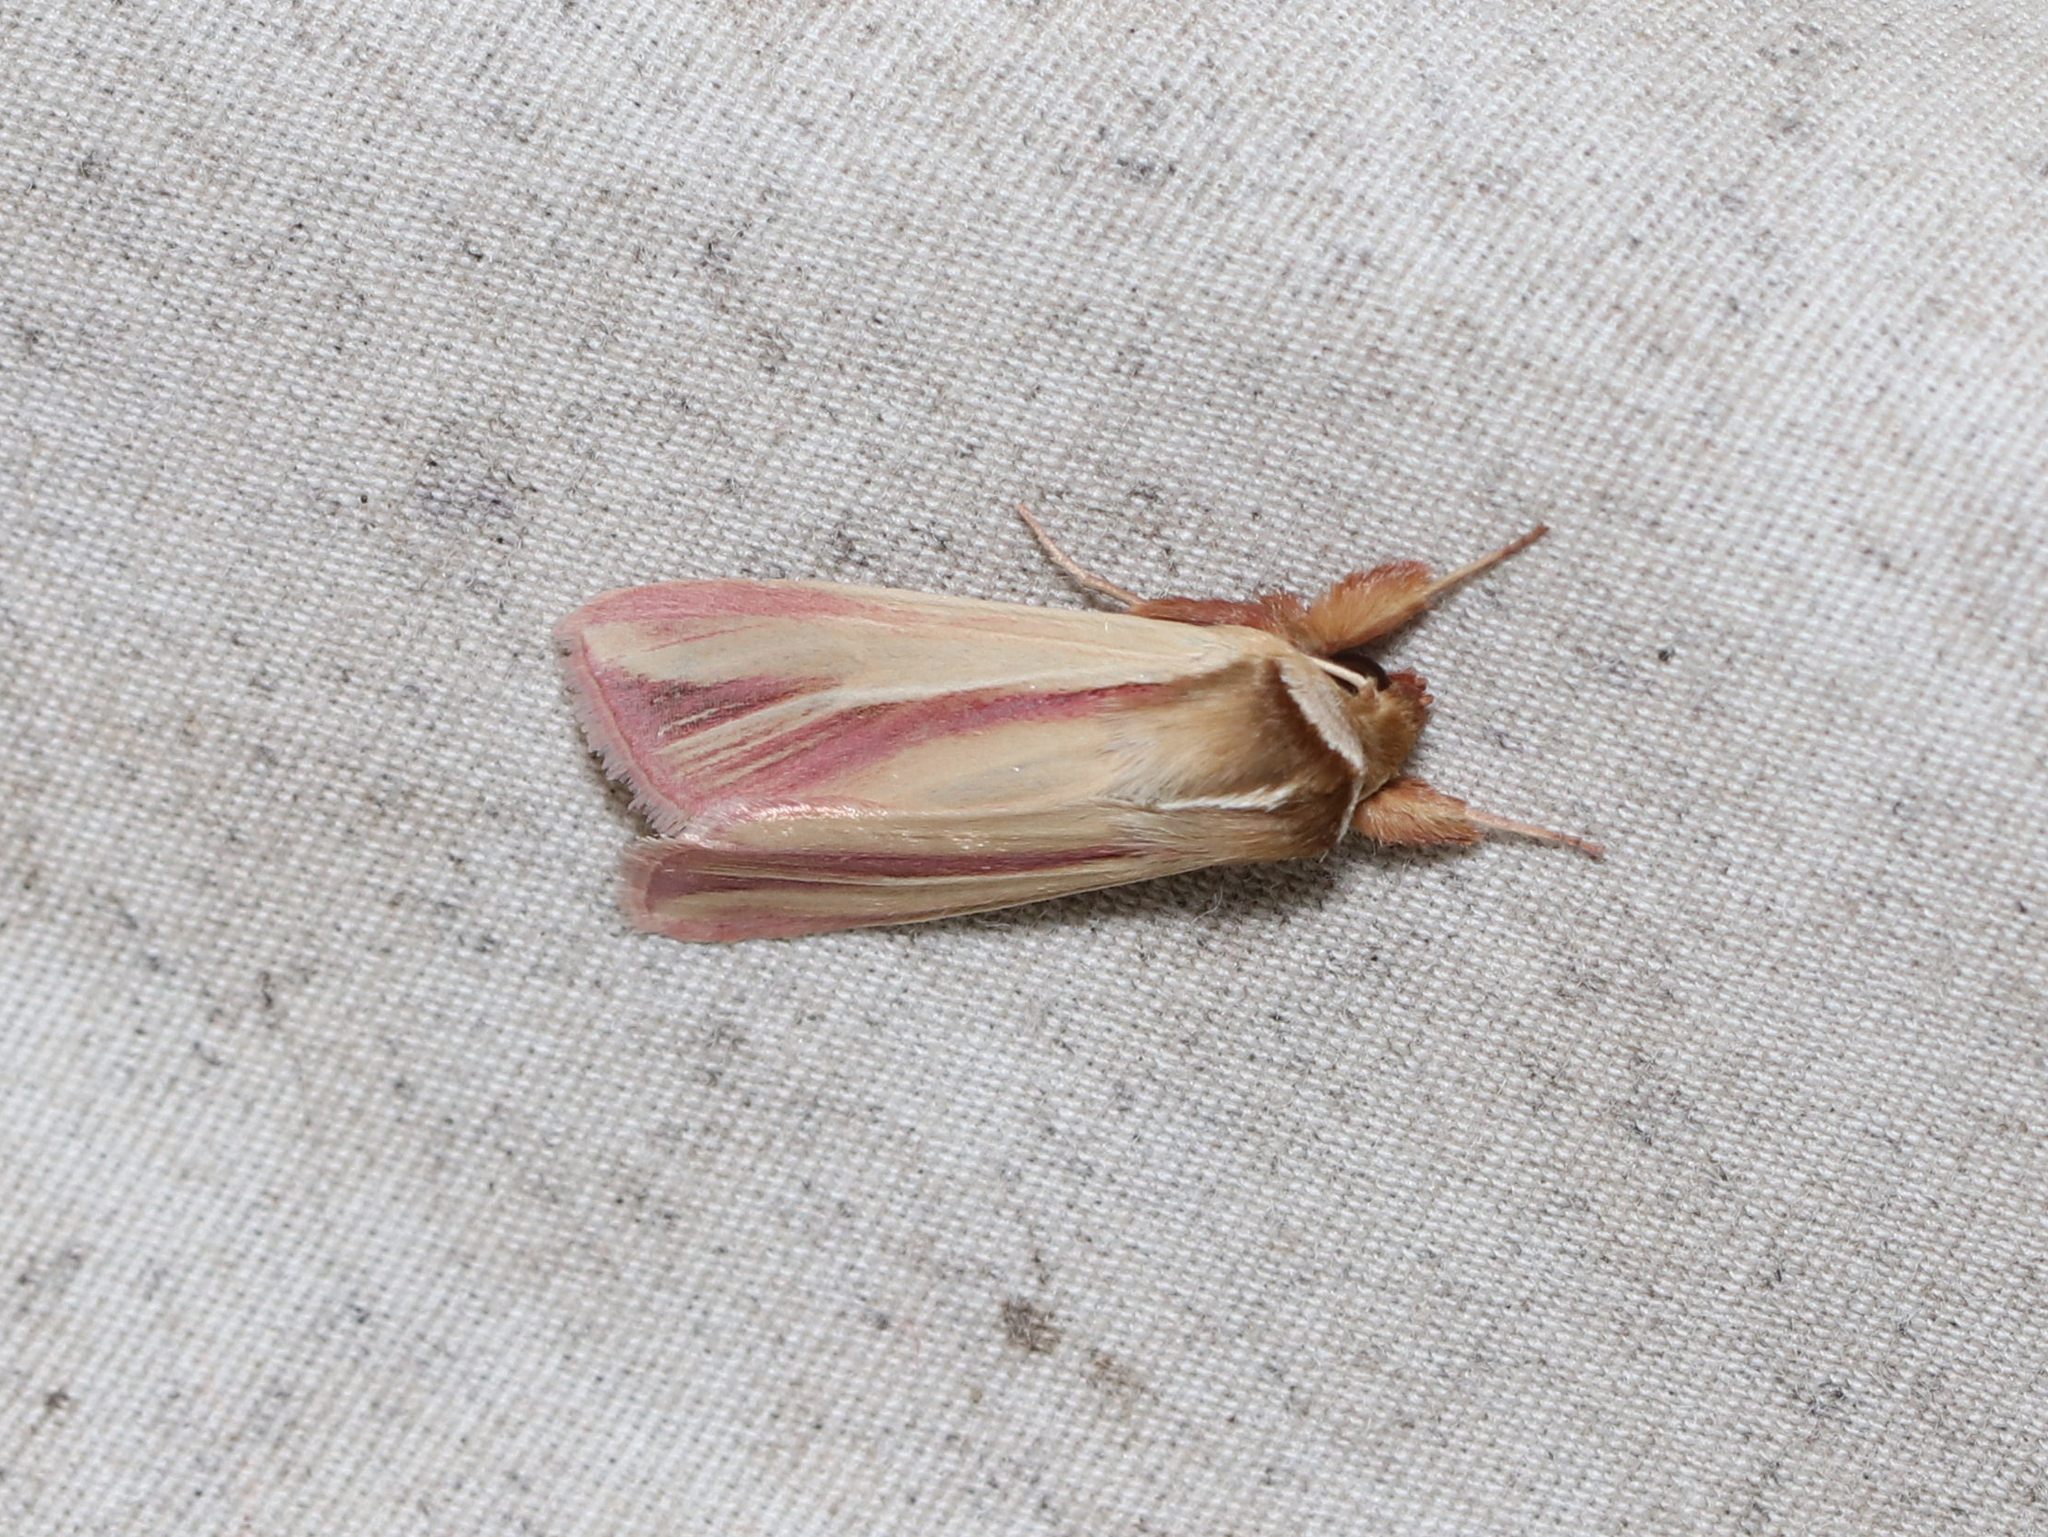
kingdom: Animalia
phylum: Arthropoda
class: Insecta
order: Lepidoptera
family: Noctuidae
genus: Dargida
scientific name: Dargida rubripennis
